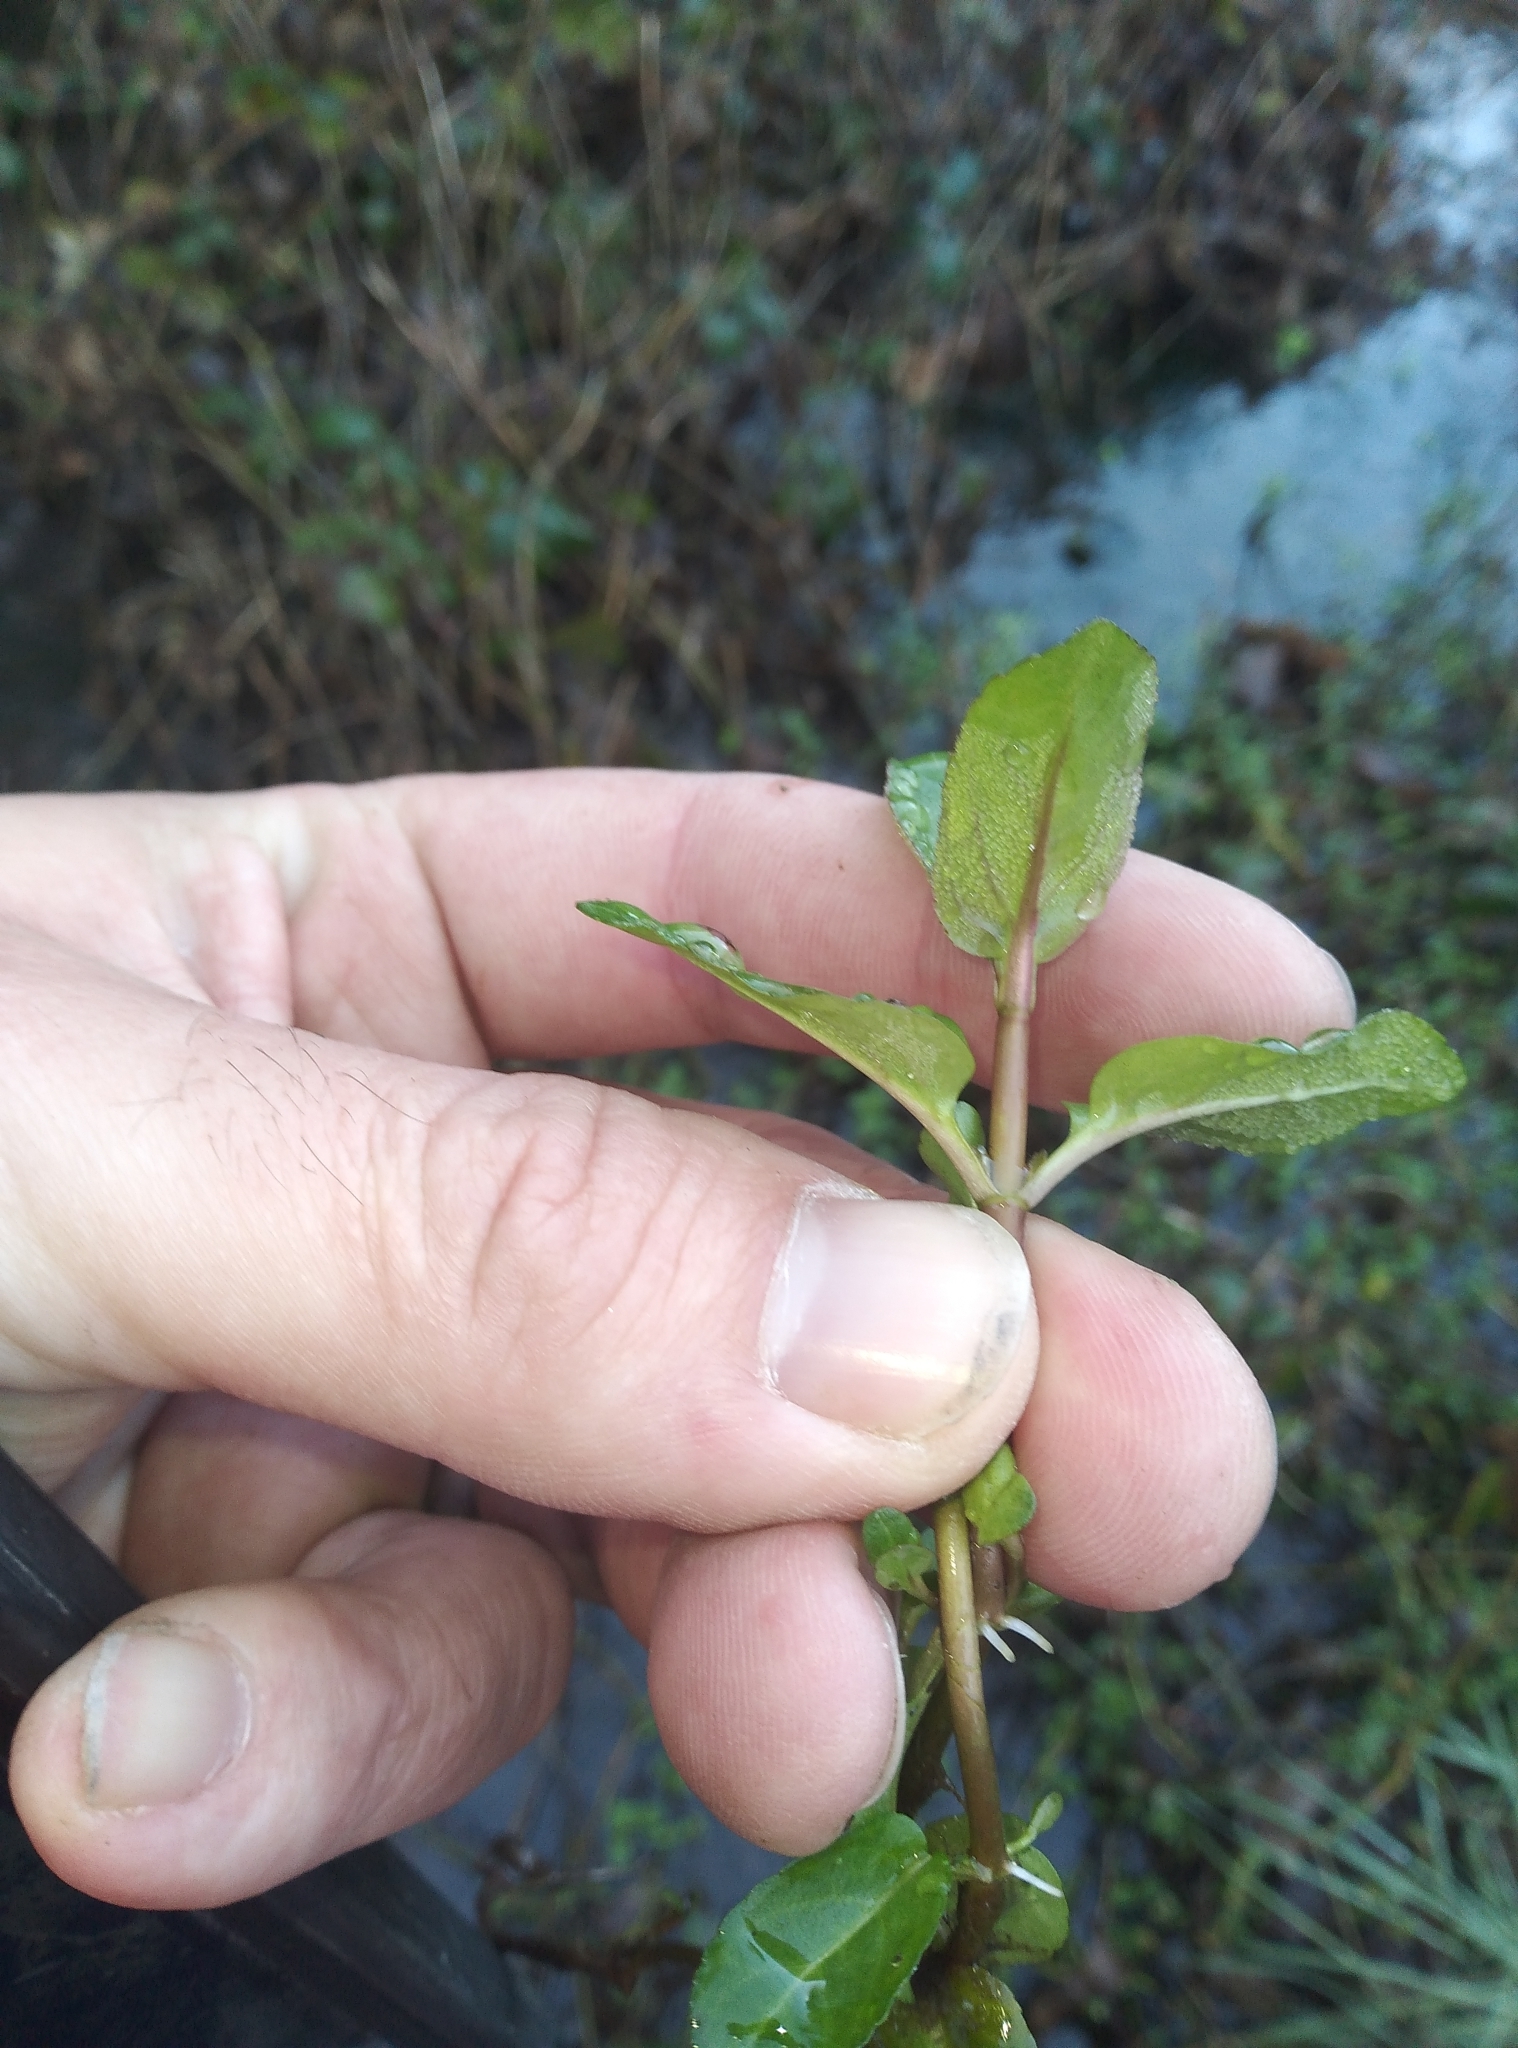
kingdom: Plantae
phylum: Tracheophyta
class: Magnoliopsida
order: Lamiales
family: Plantaginaceae
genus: Veronica
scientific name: Veronica americana
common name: American brooklime
